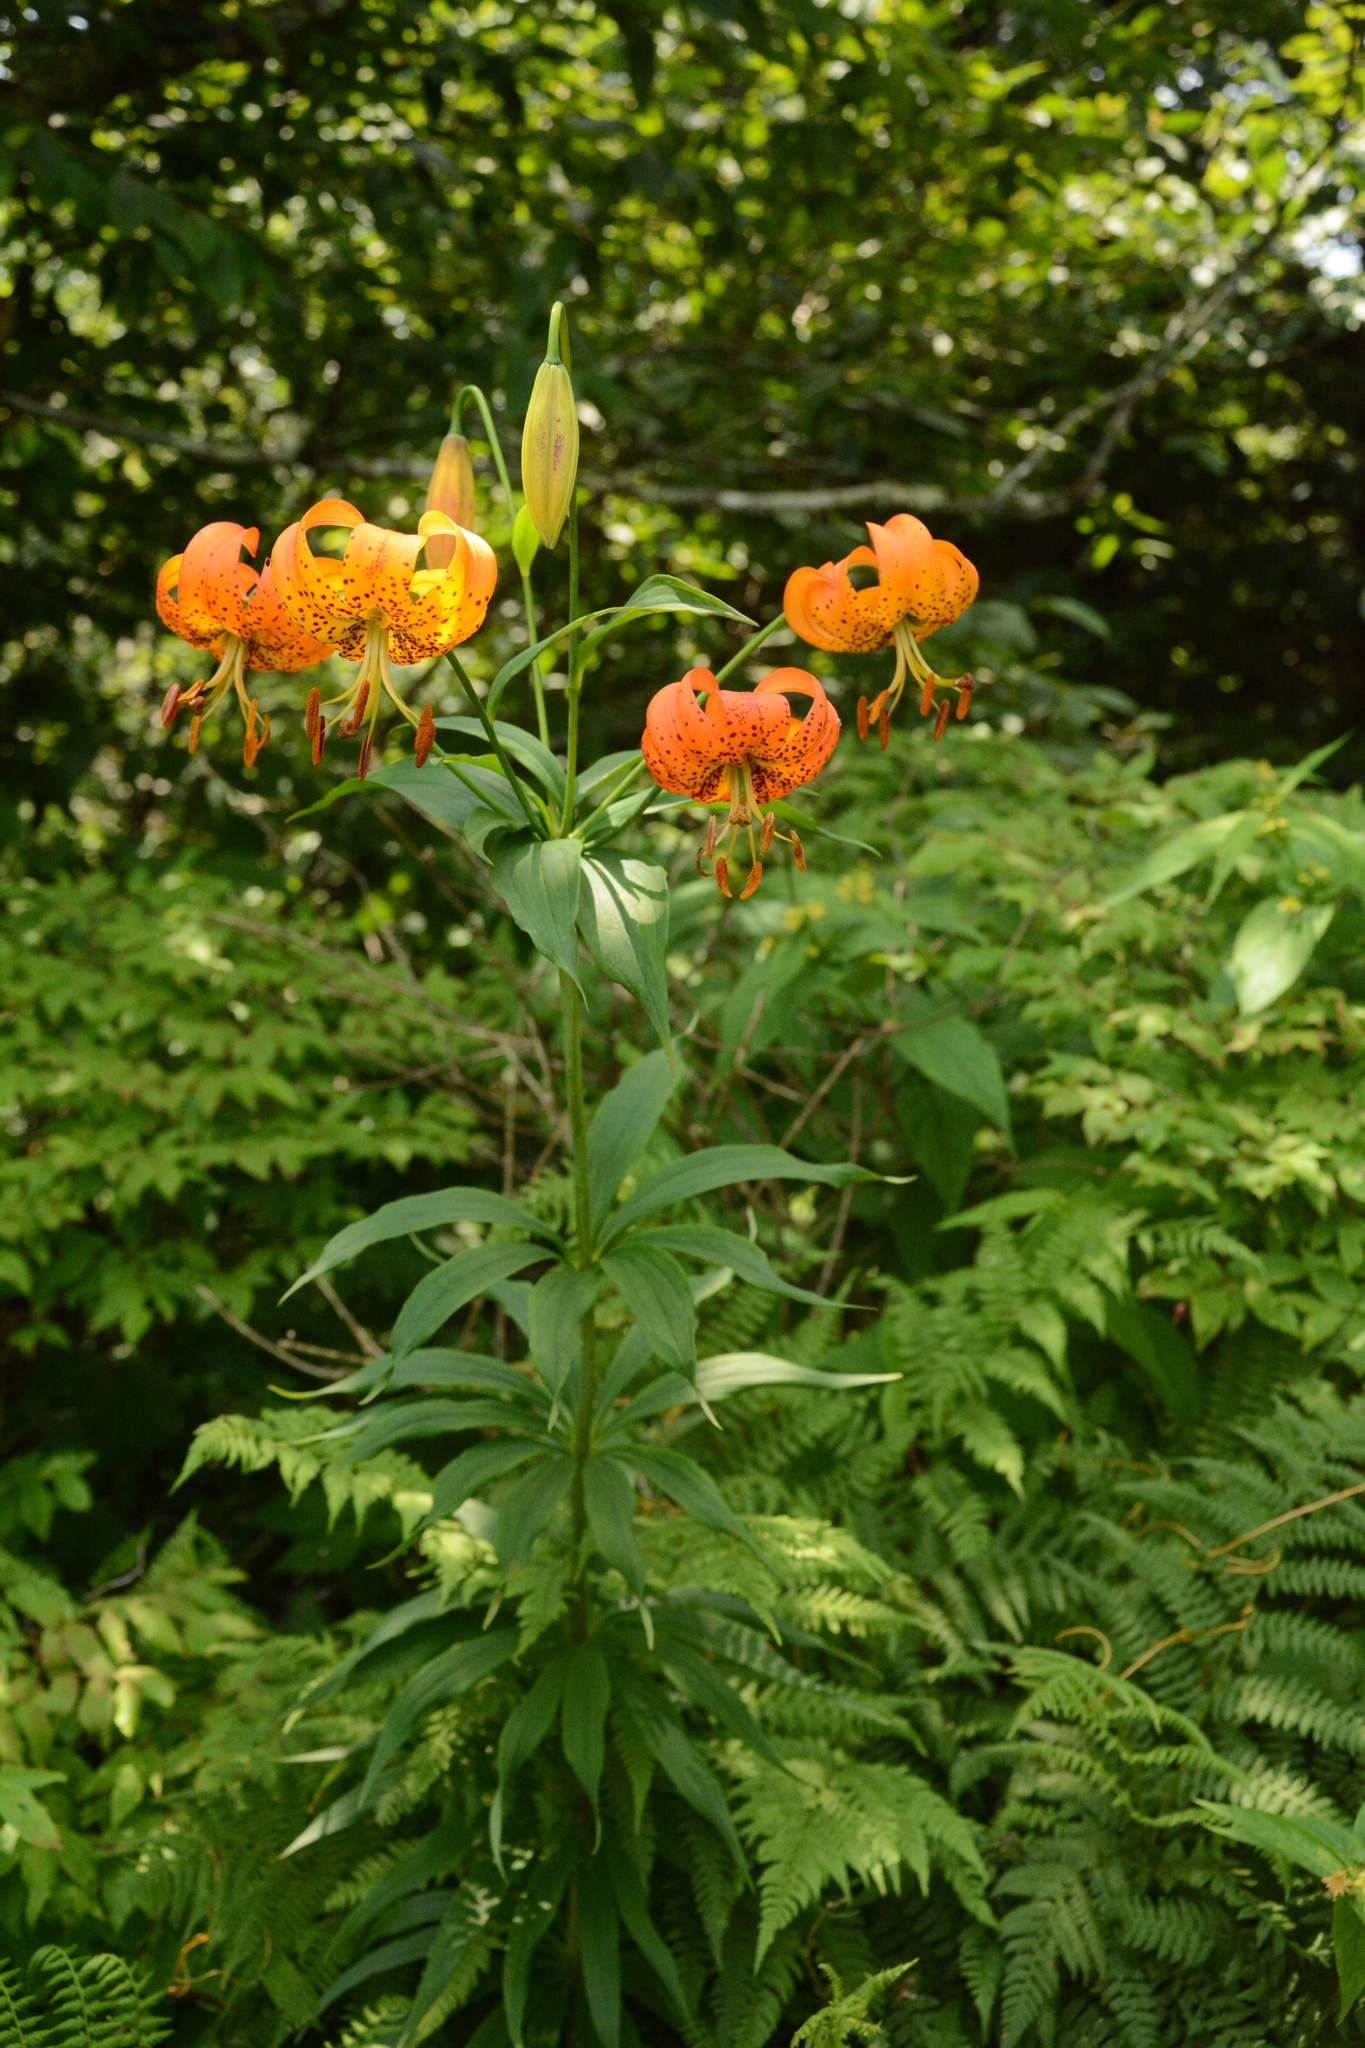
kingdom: Plantae
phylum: Tracheophyta
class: Liliopsida
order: Liliales
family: Liliaceae
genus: Lilium
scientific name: Lilium superbum
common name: American turk's-cap lily
